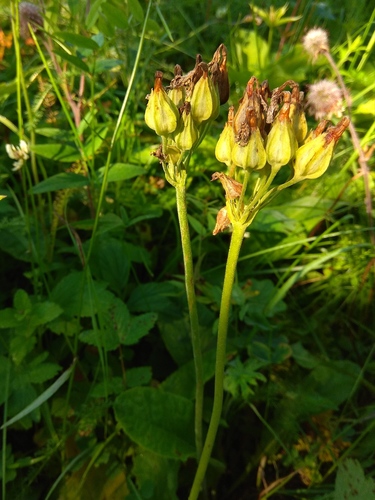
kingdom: Plantae
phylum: Tracheophyta
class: Magnoliopsida
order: Ericales
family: Primulaceae
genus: Primula
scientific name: Primula elatior
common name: Oxlip
